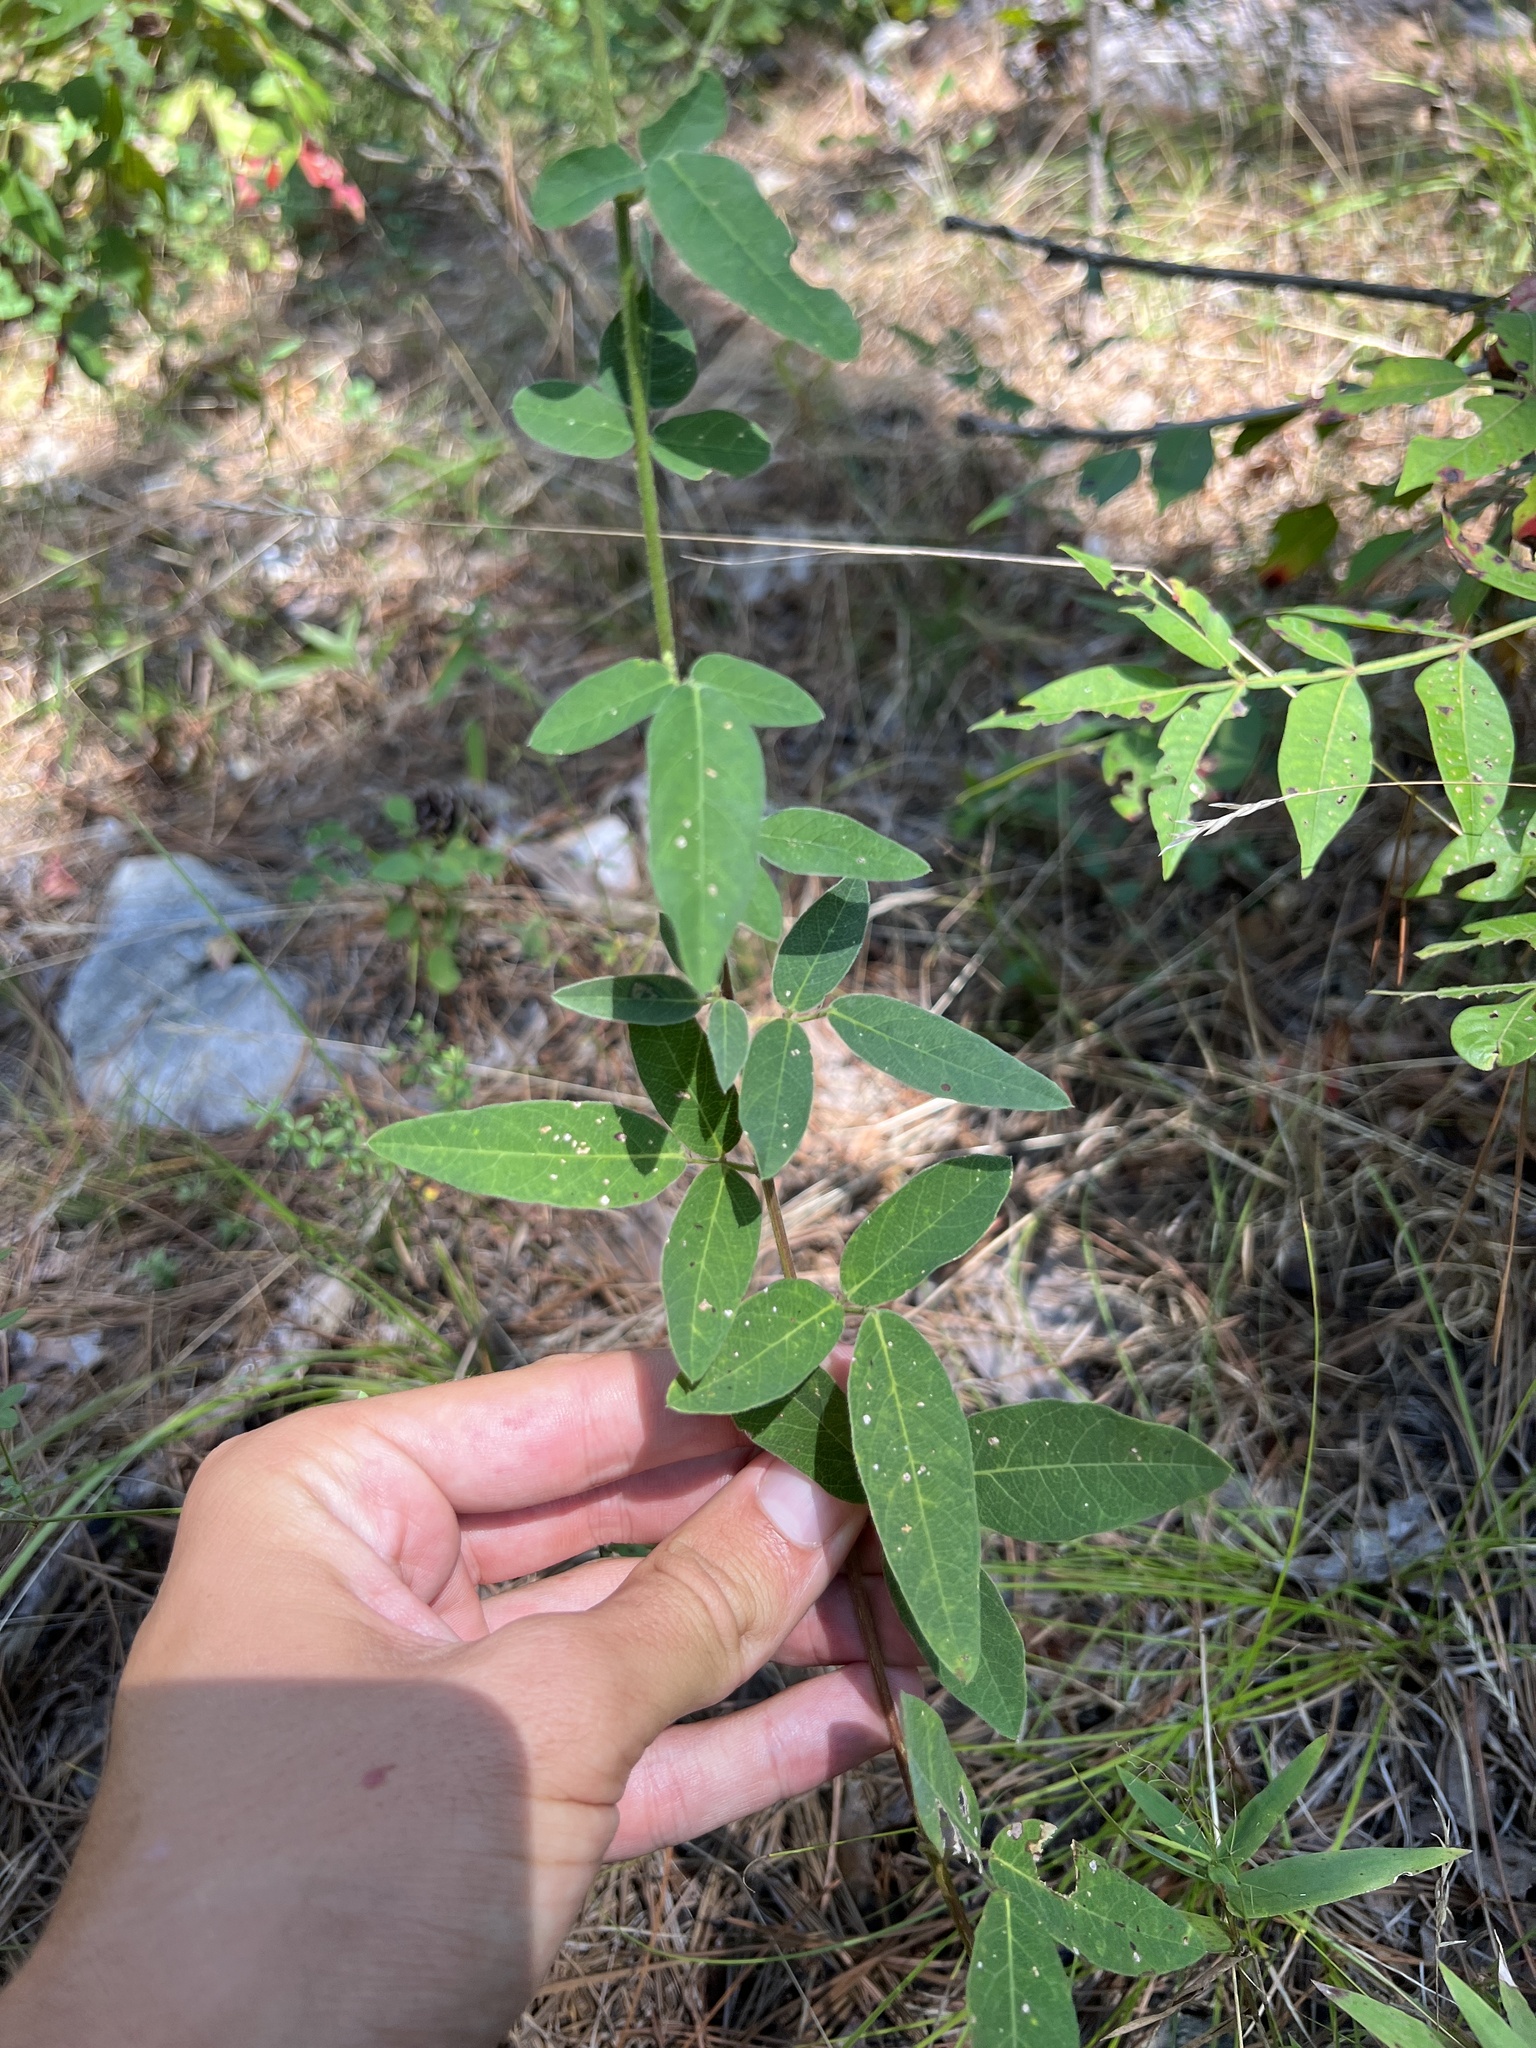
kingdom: Plantae
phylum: Tracheophyta
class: Magnoliopsida
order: Fabales
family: Fabaceae
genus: Desmodium
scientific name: Desmodium obtusum
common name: Stiff tick trefoil
